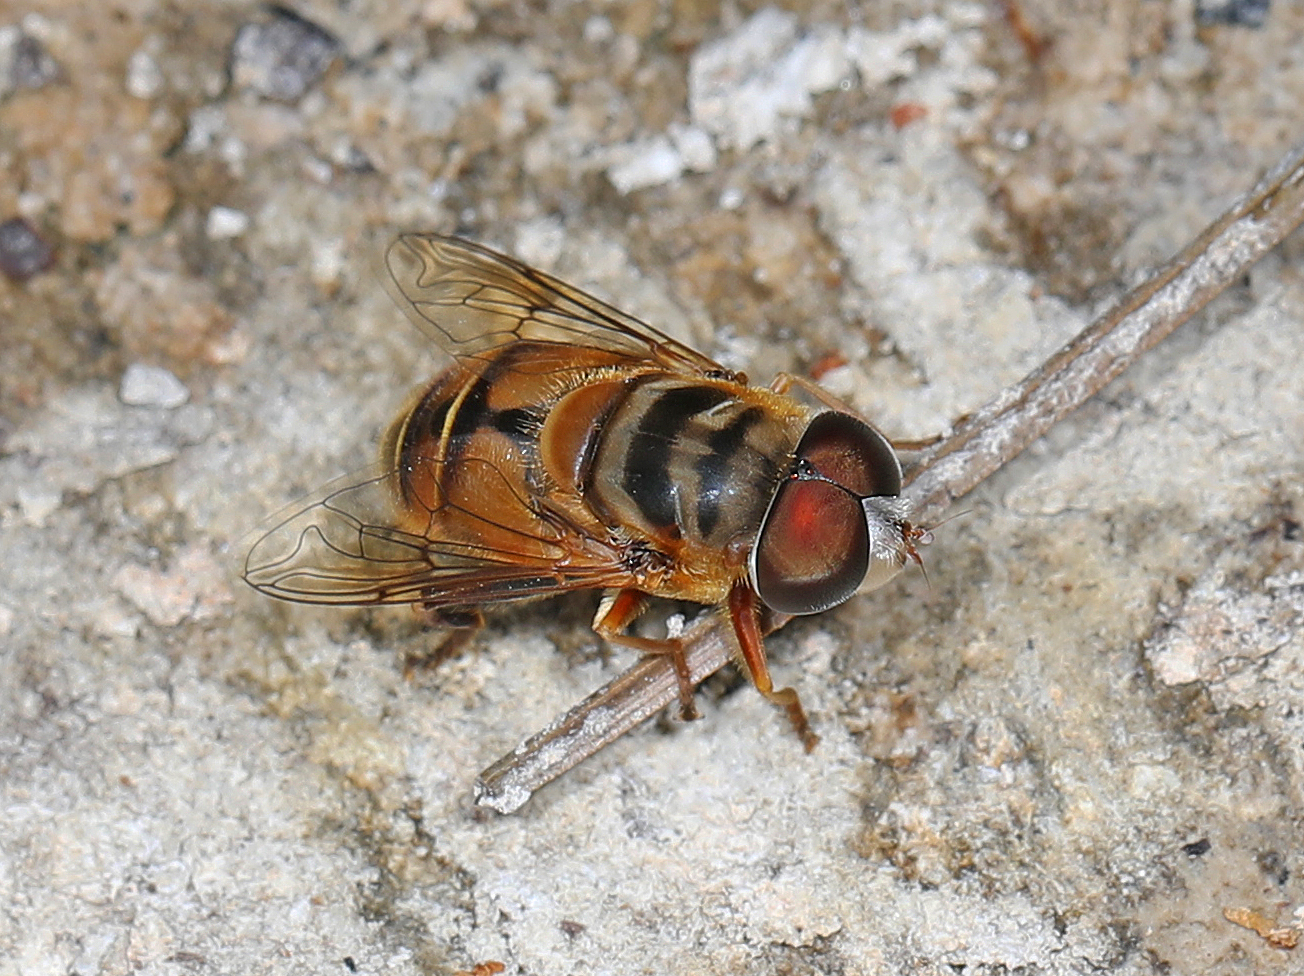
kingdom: Animalia
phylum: Arthropoda
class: Insecta
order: Diptera
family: Syrphidae
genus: Palpada
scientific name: Palpada vinetorum
